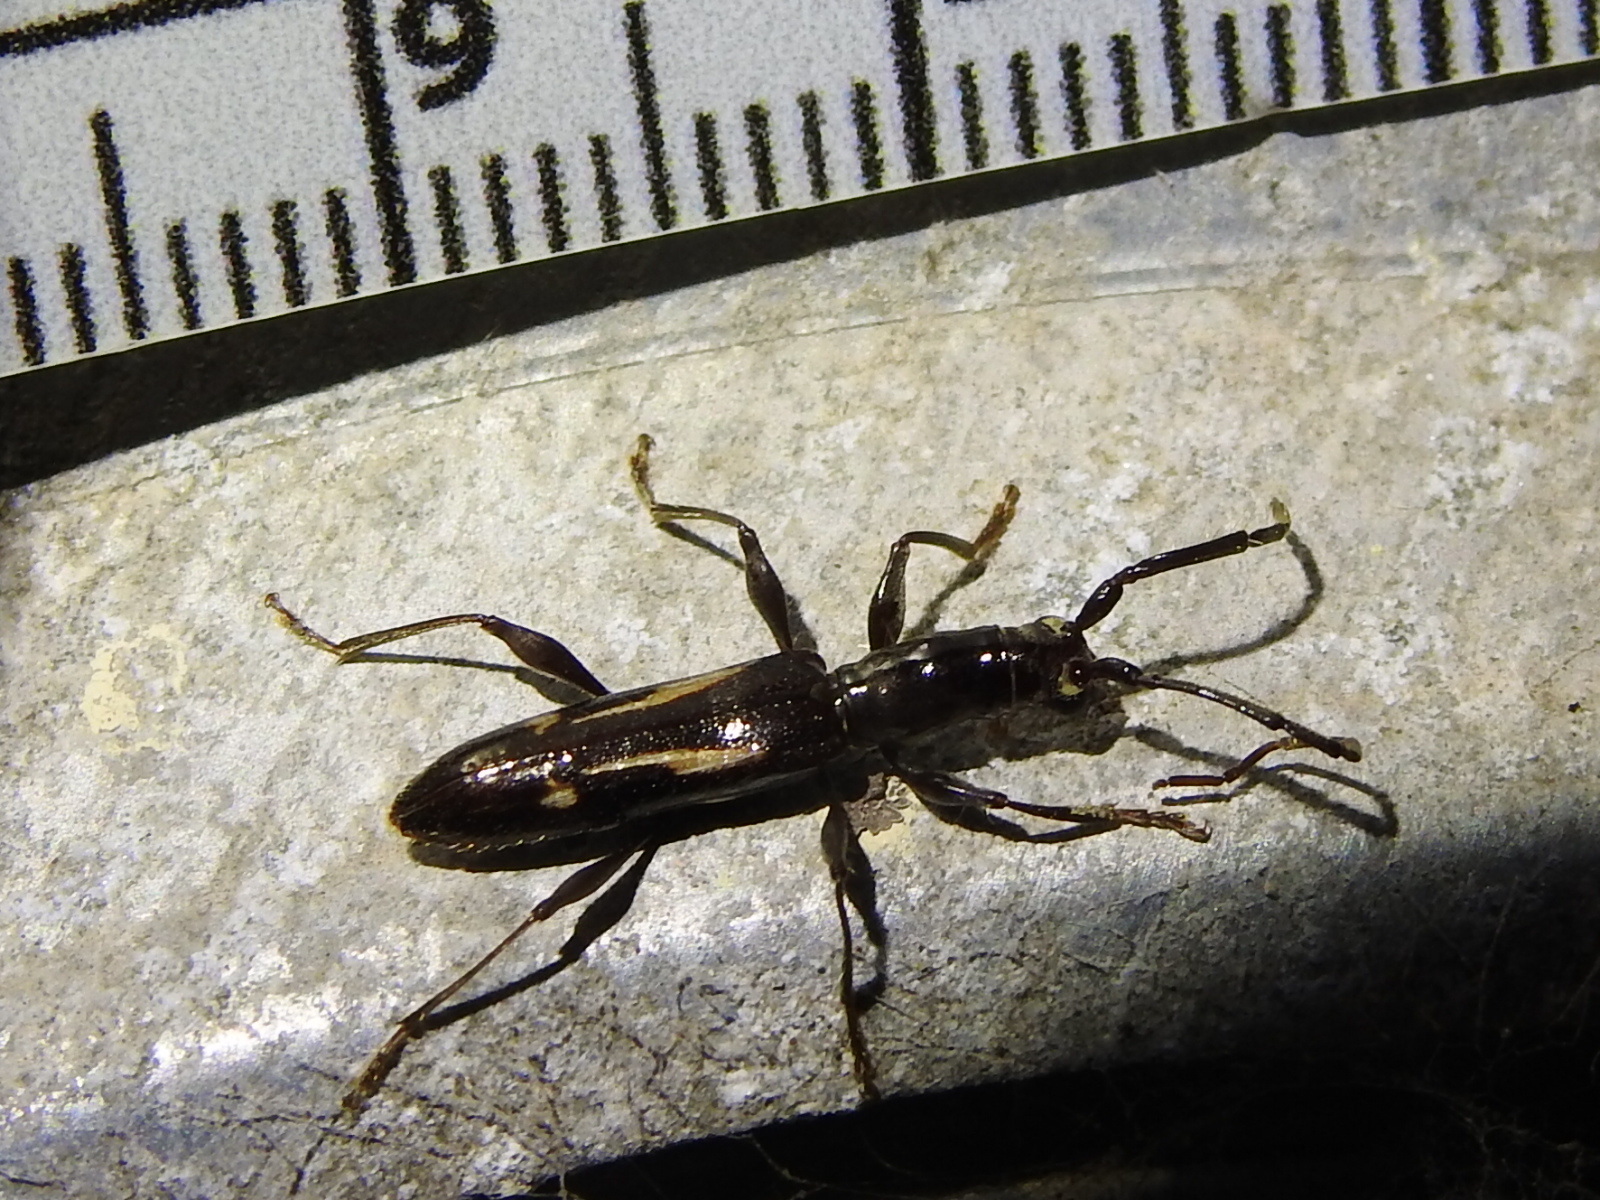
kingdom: Animalia
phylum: Arthropoda
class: Insecta
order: Coleoptera
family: Cerambycidae
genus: Neocompsa
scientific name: Neocompsa exclamationis
